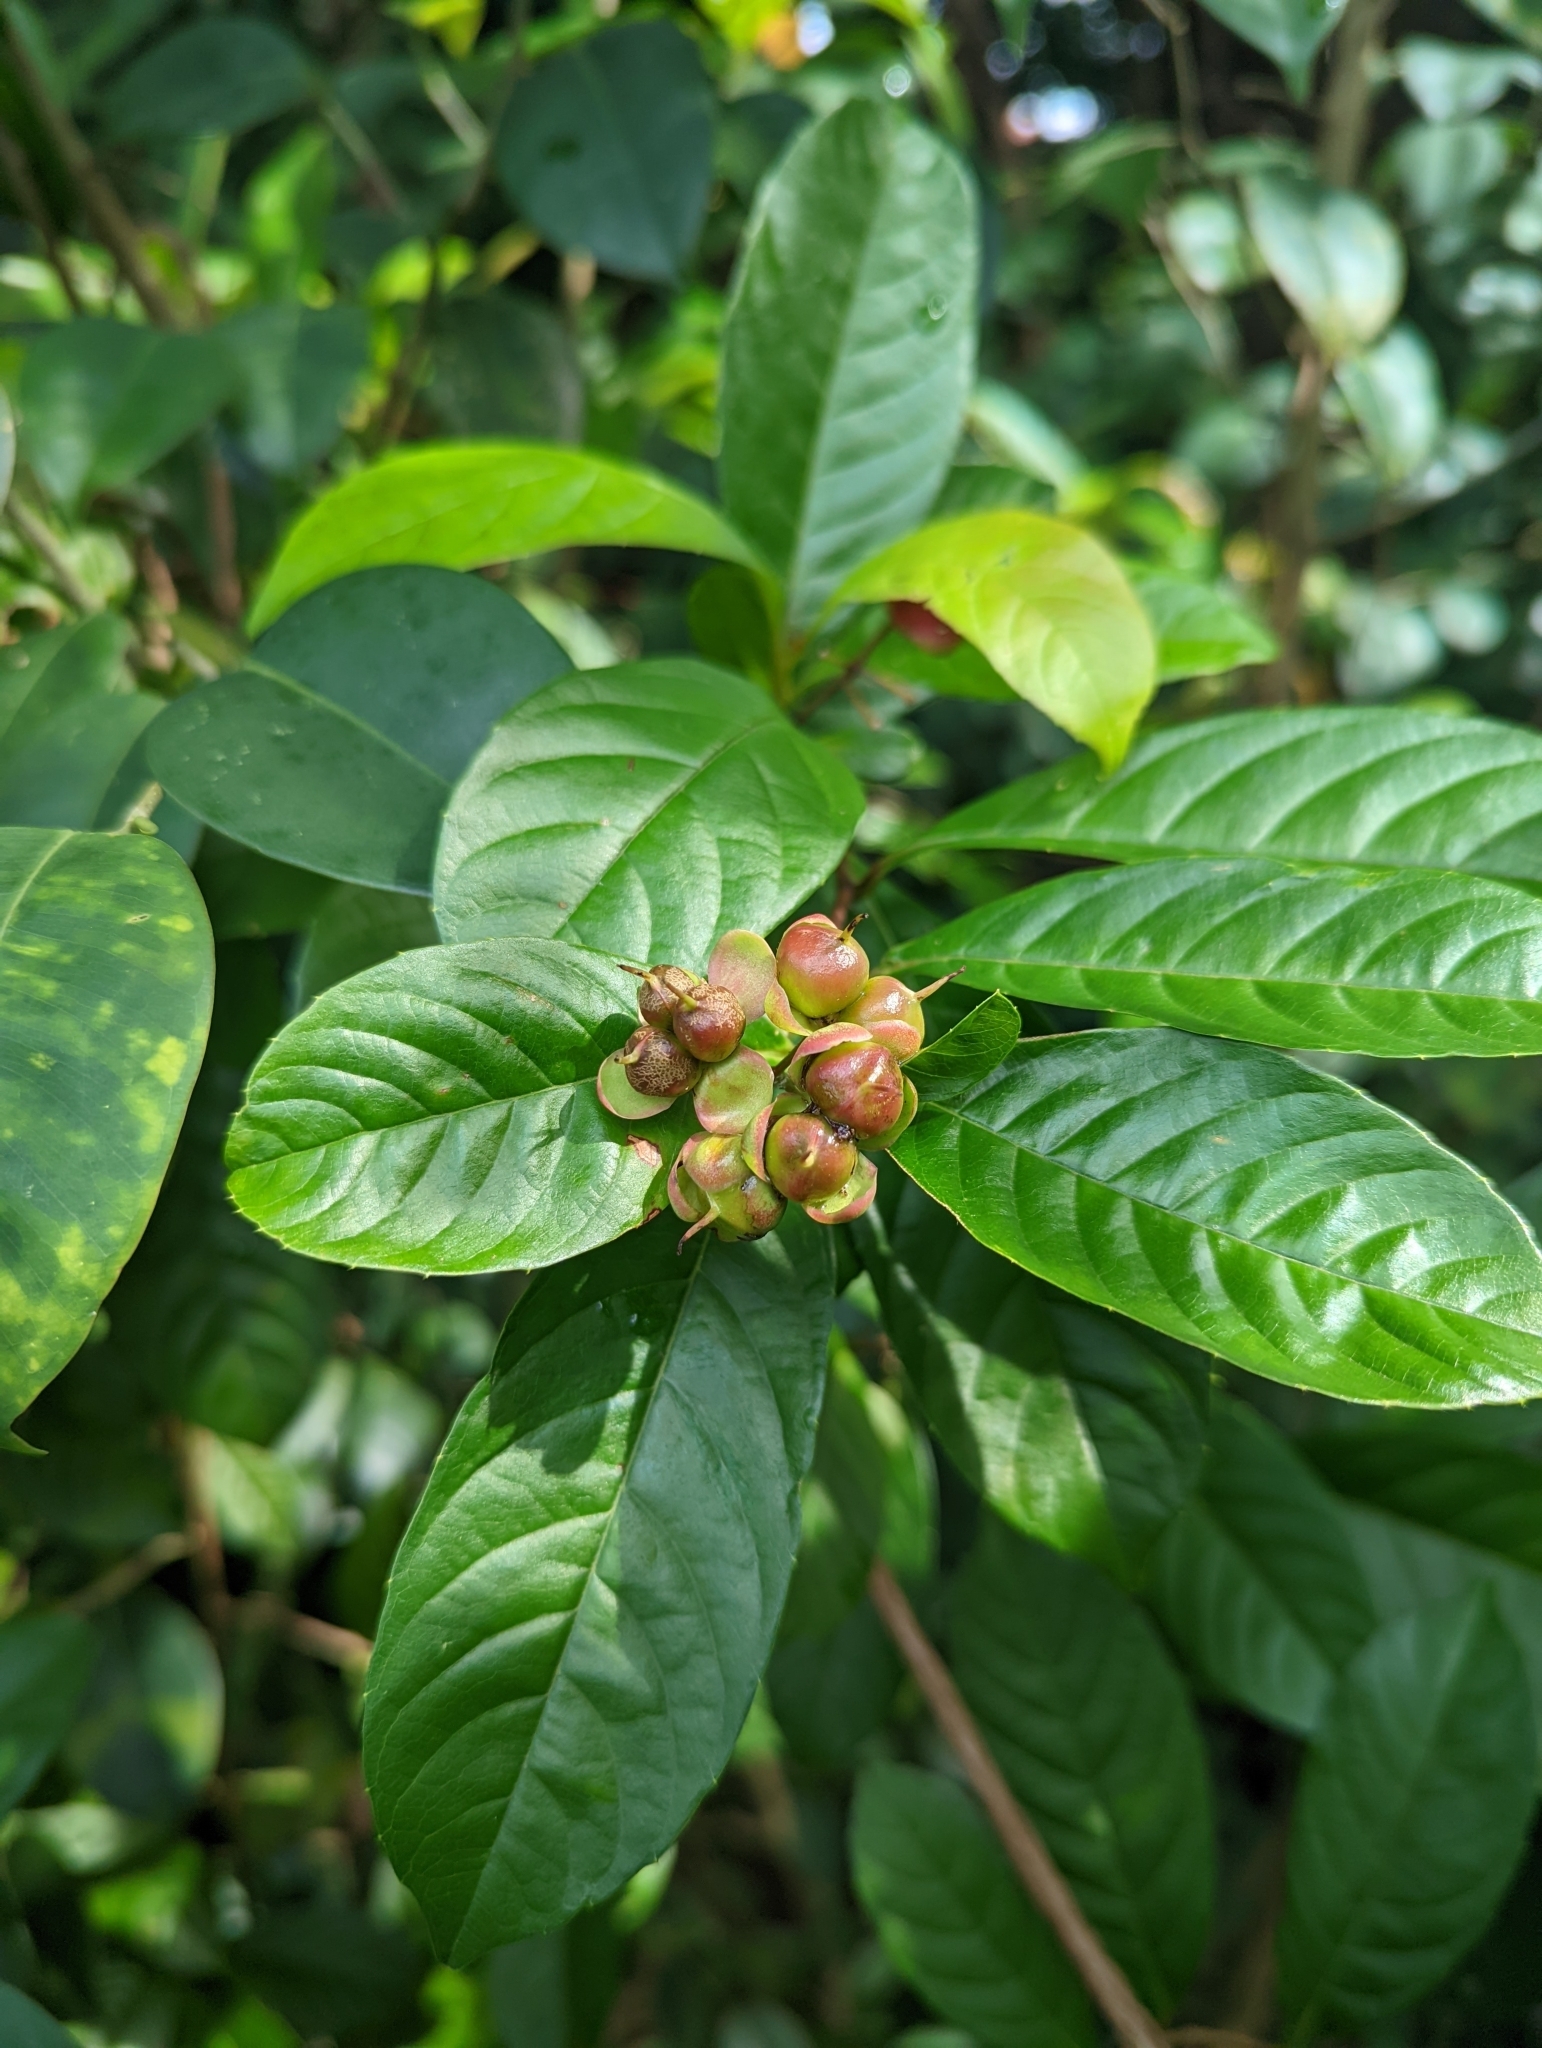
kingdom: Plantae
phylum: Tracheophyta
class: Magnoliopsida
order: Dilleniales
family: Dilleniaceae
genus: Tetracera
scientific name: Tetracera indica
